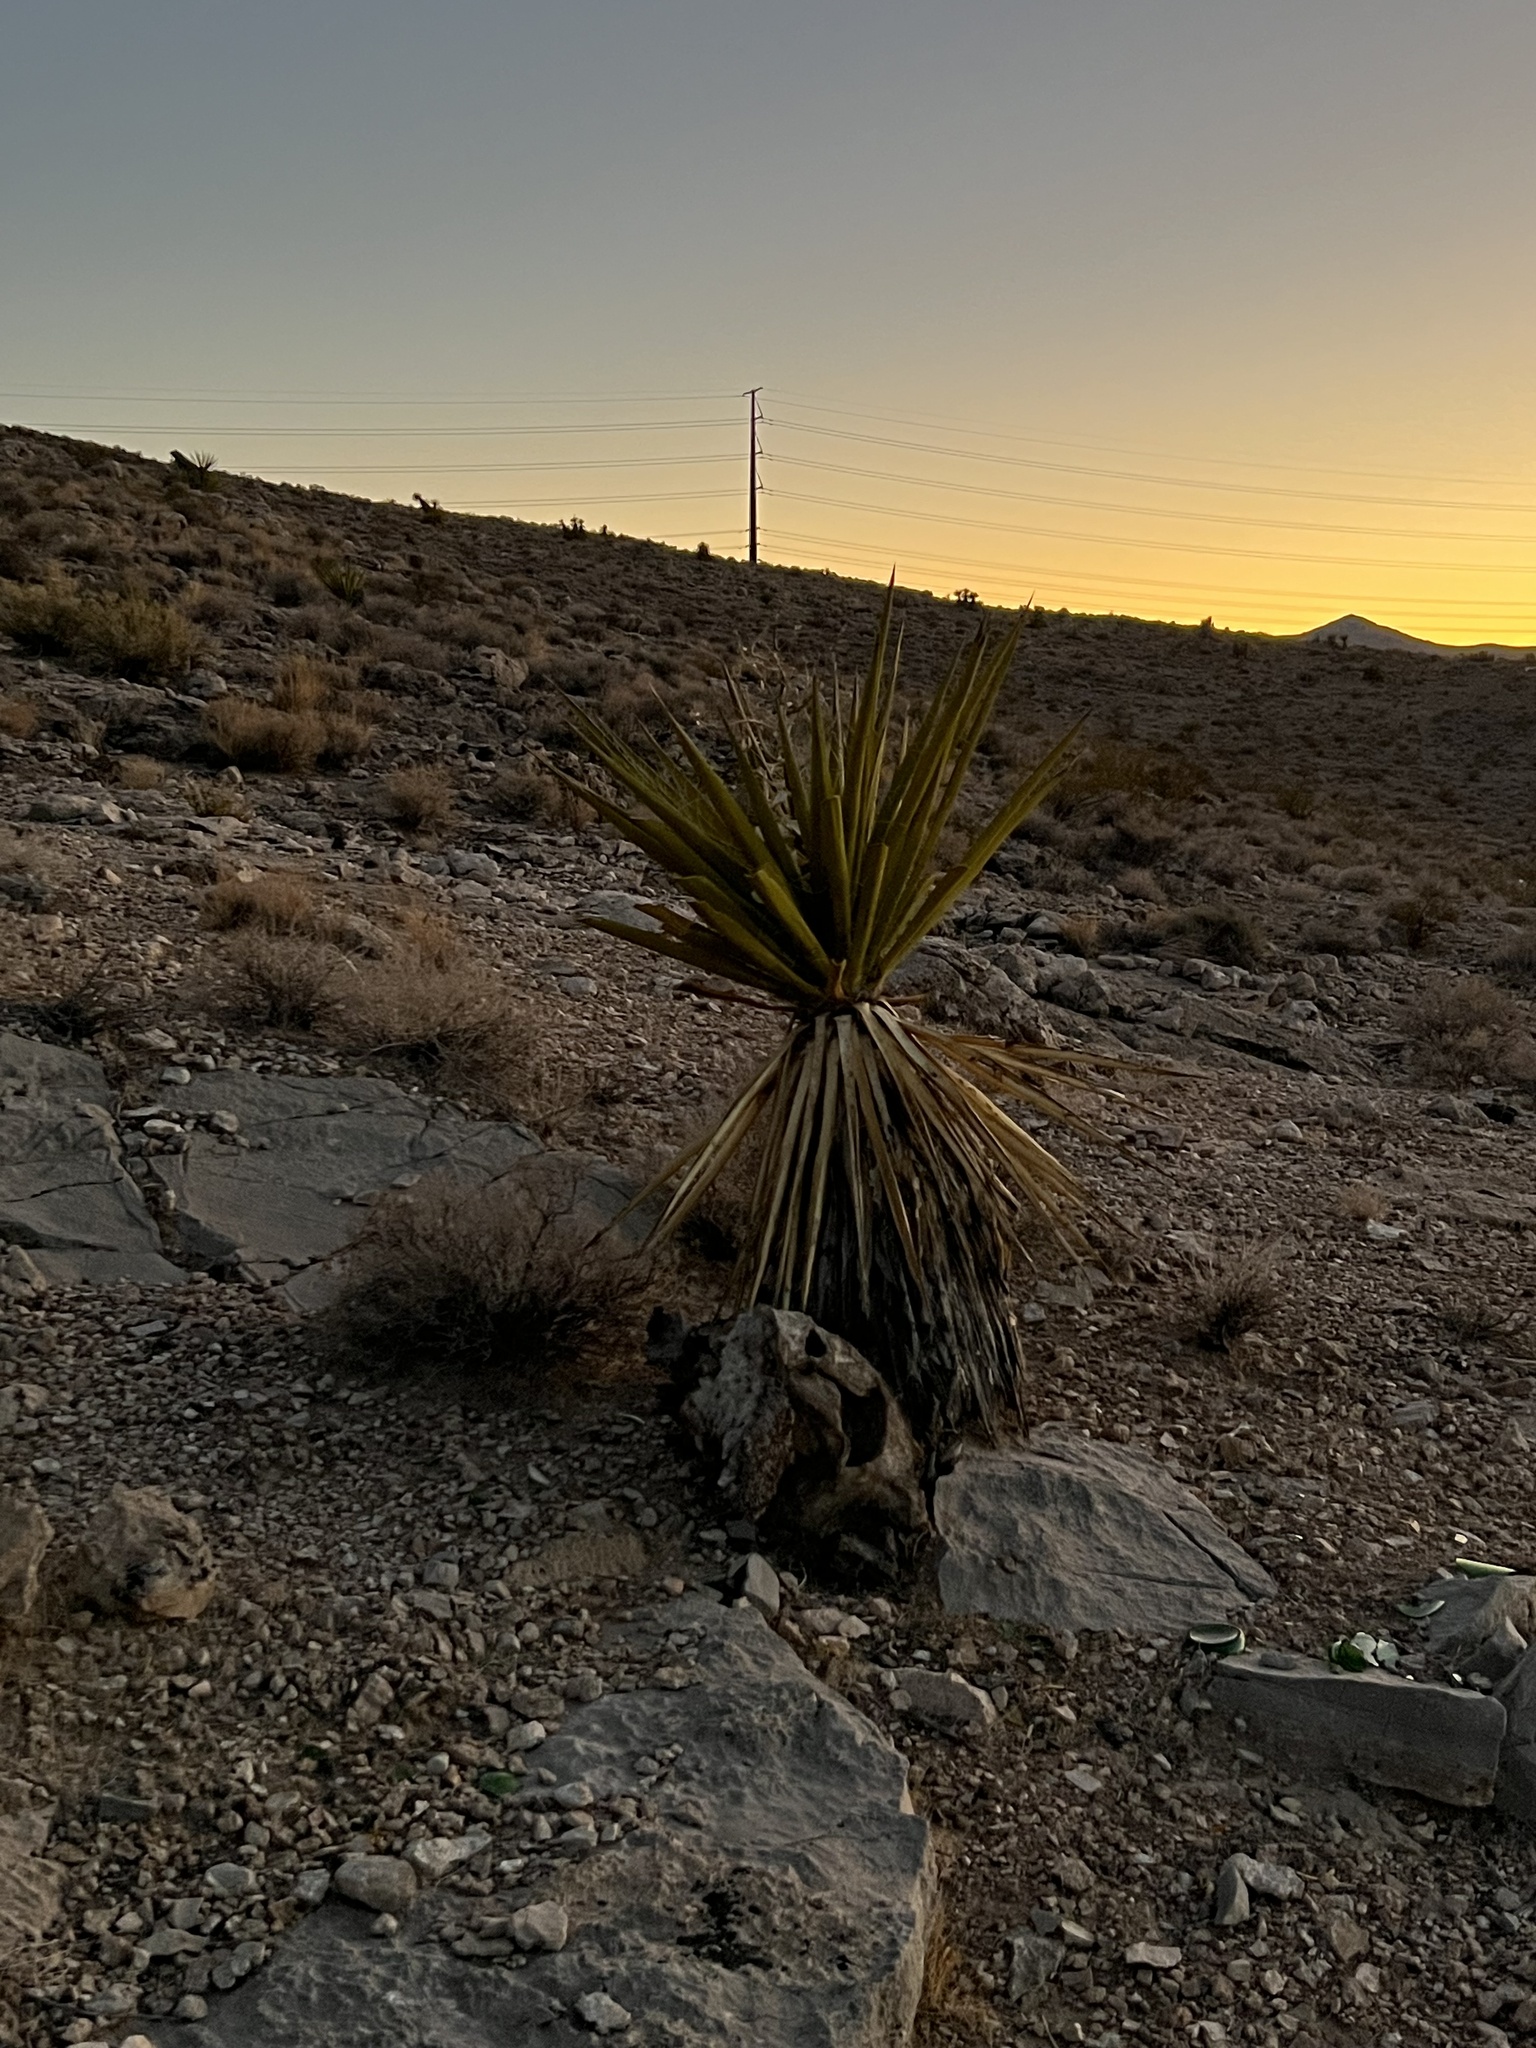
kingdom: Plantae
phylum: Tracheophyta
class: Liliopsida
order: Asparagales
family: Asparagaceae
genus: Yucca
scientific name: Yucca schidigera
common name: Mojave yucca
